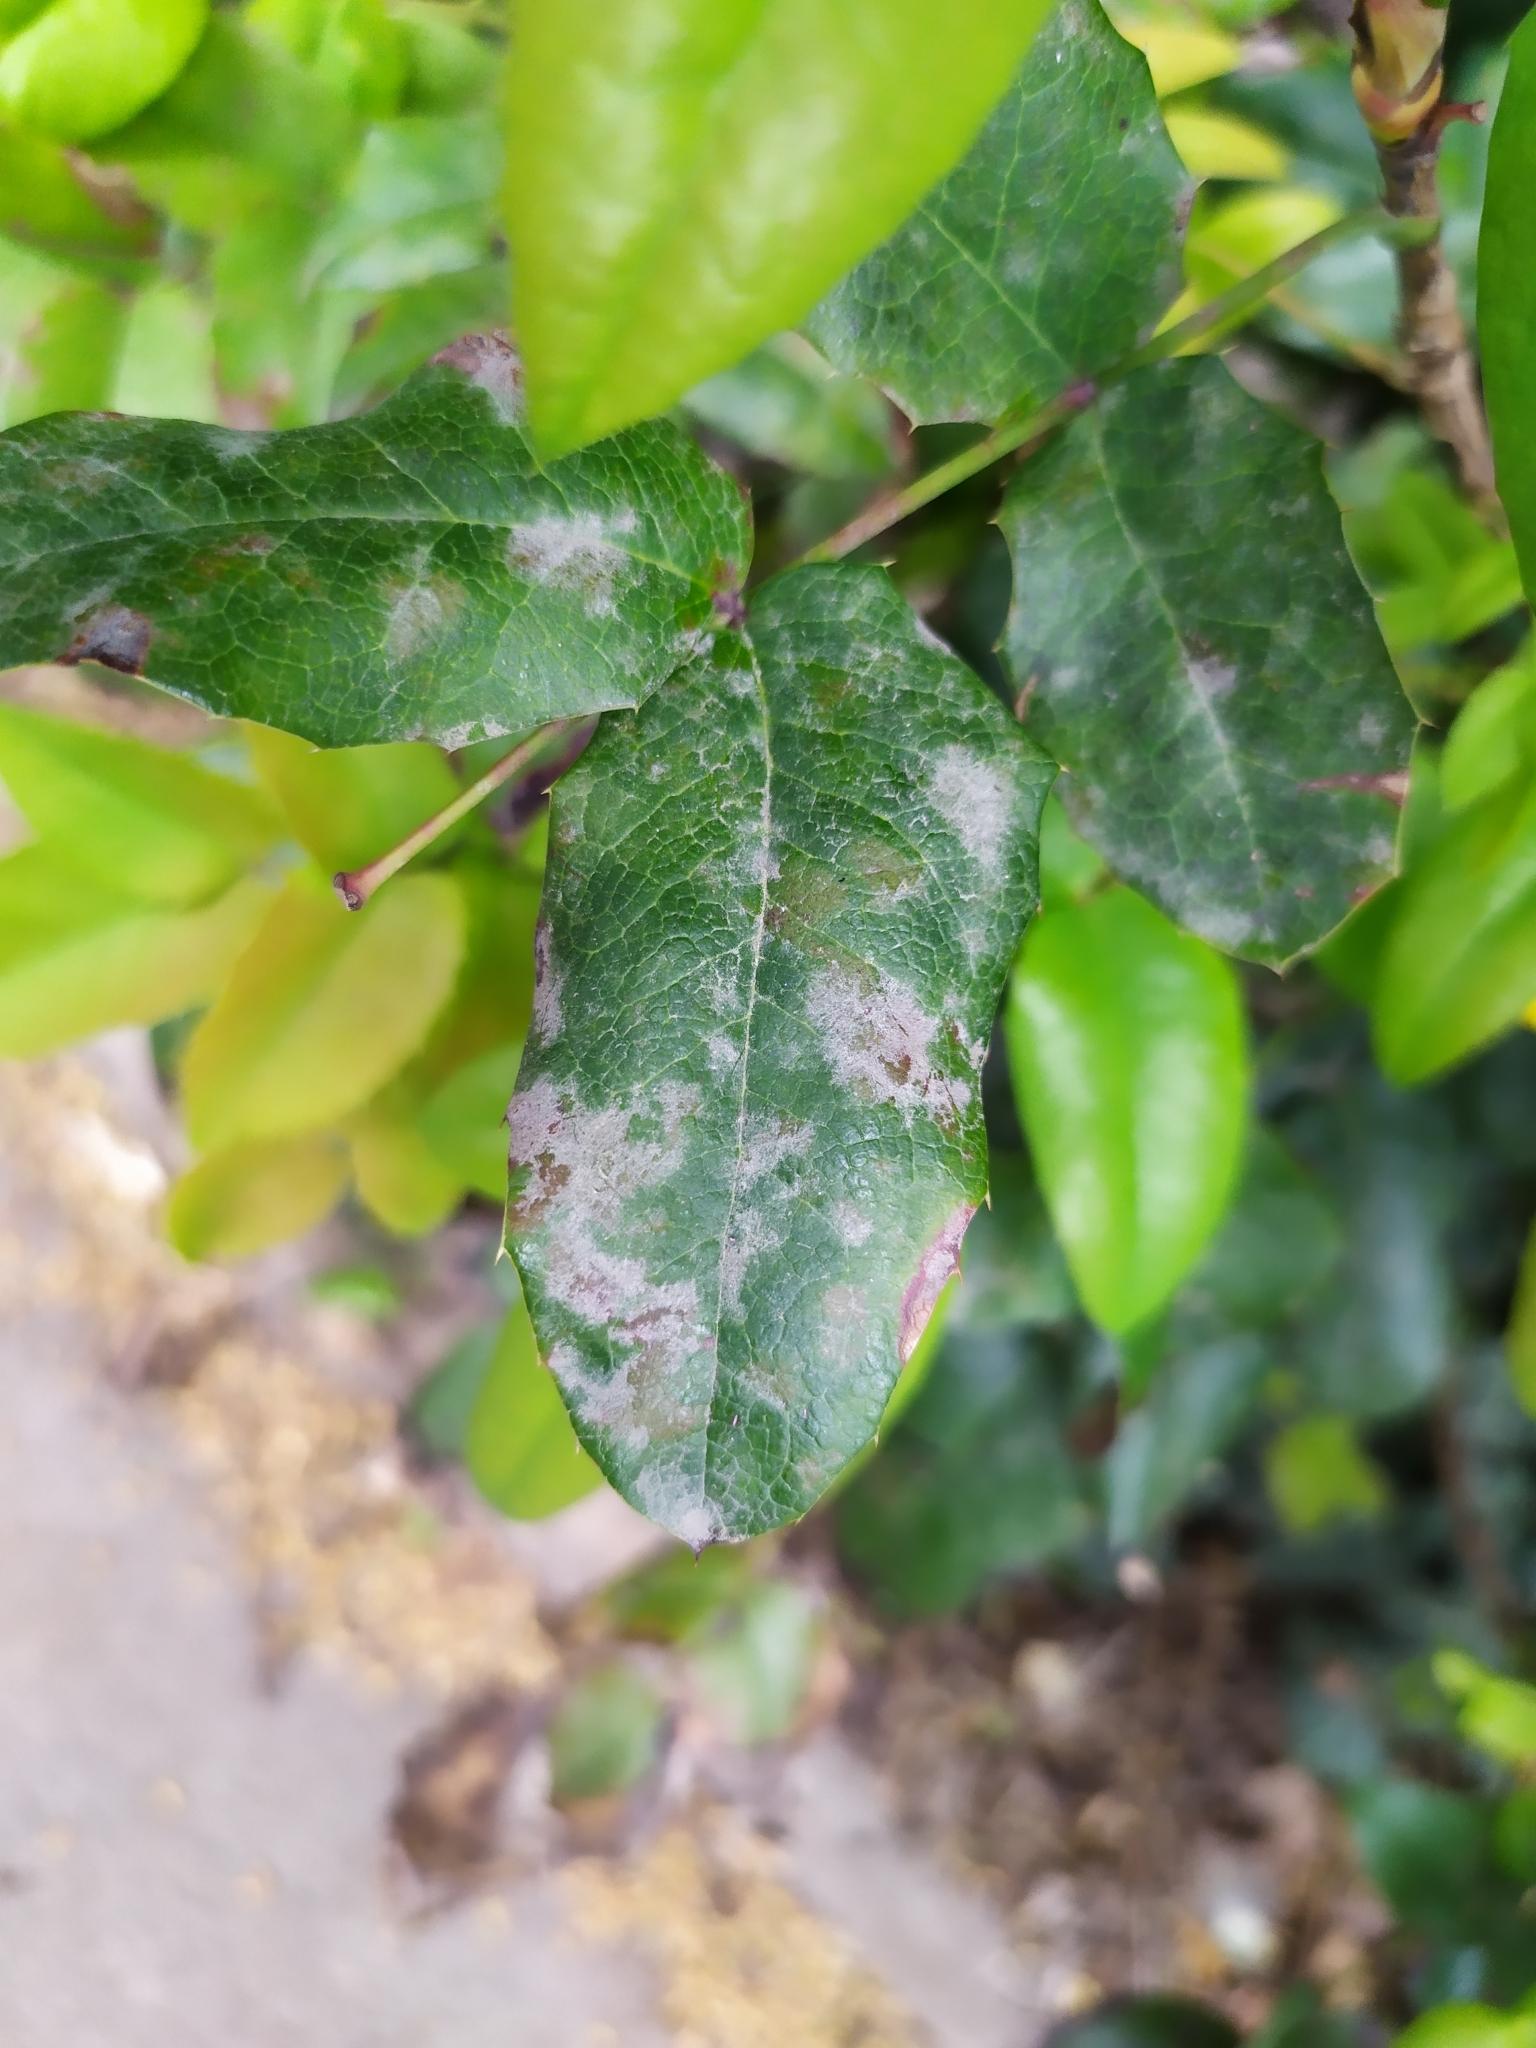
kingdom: Fungi
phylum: Ascomycota
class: Leotiomycetes
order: Helotiales
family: Erysiphaceae
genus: Erysiphe
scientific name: Erysiphe berberidis
